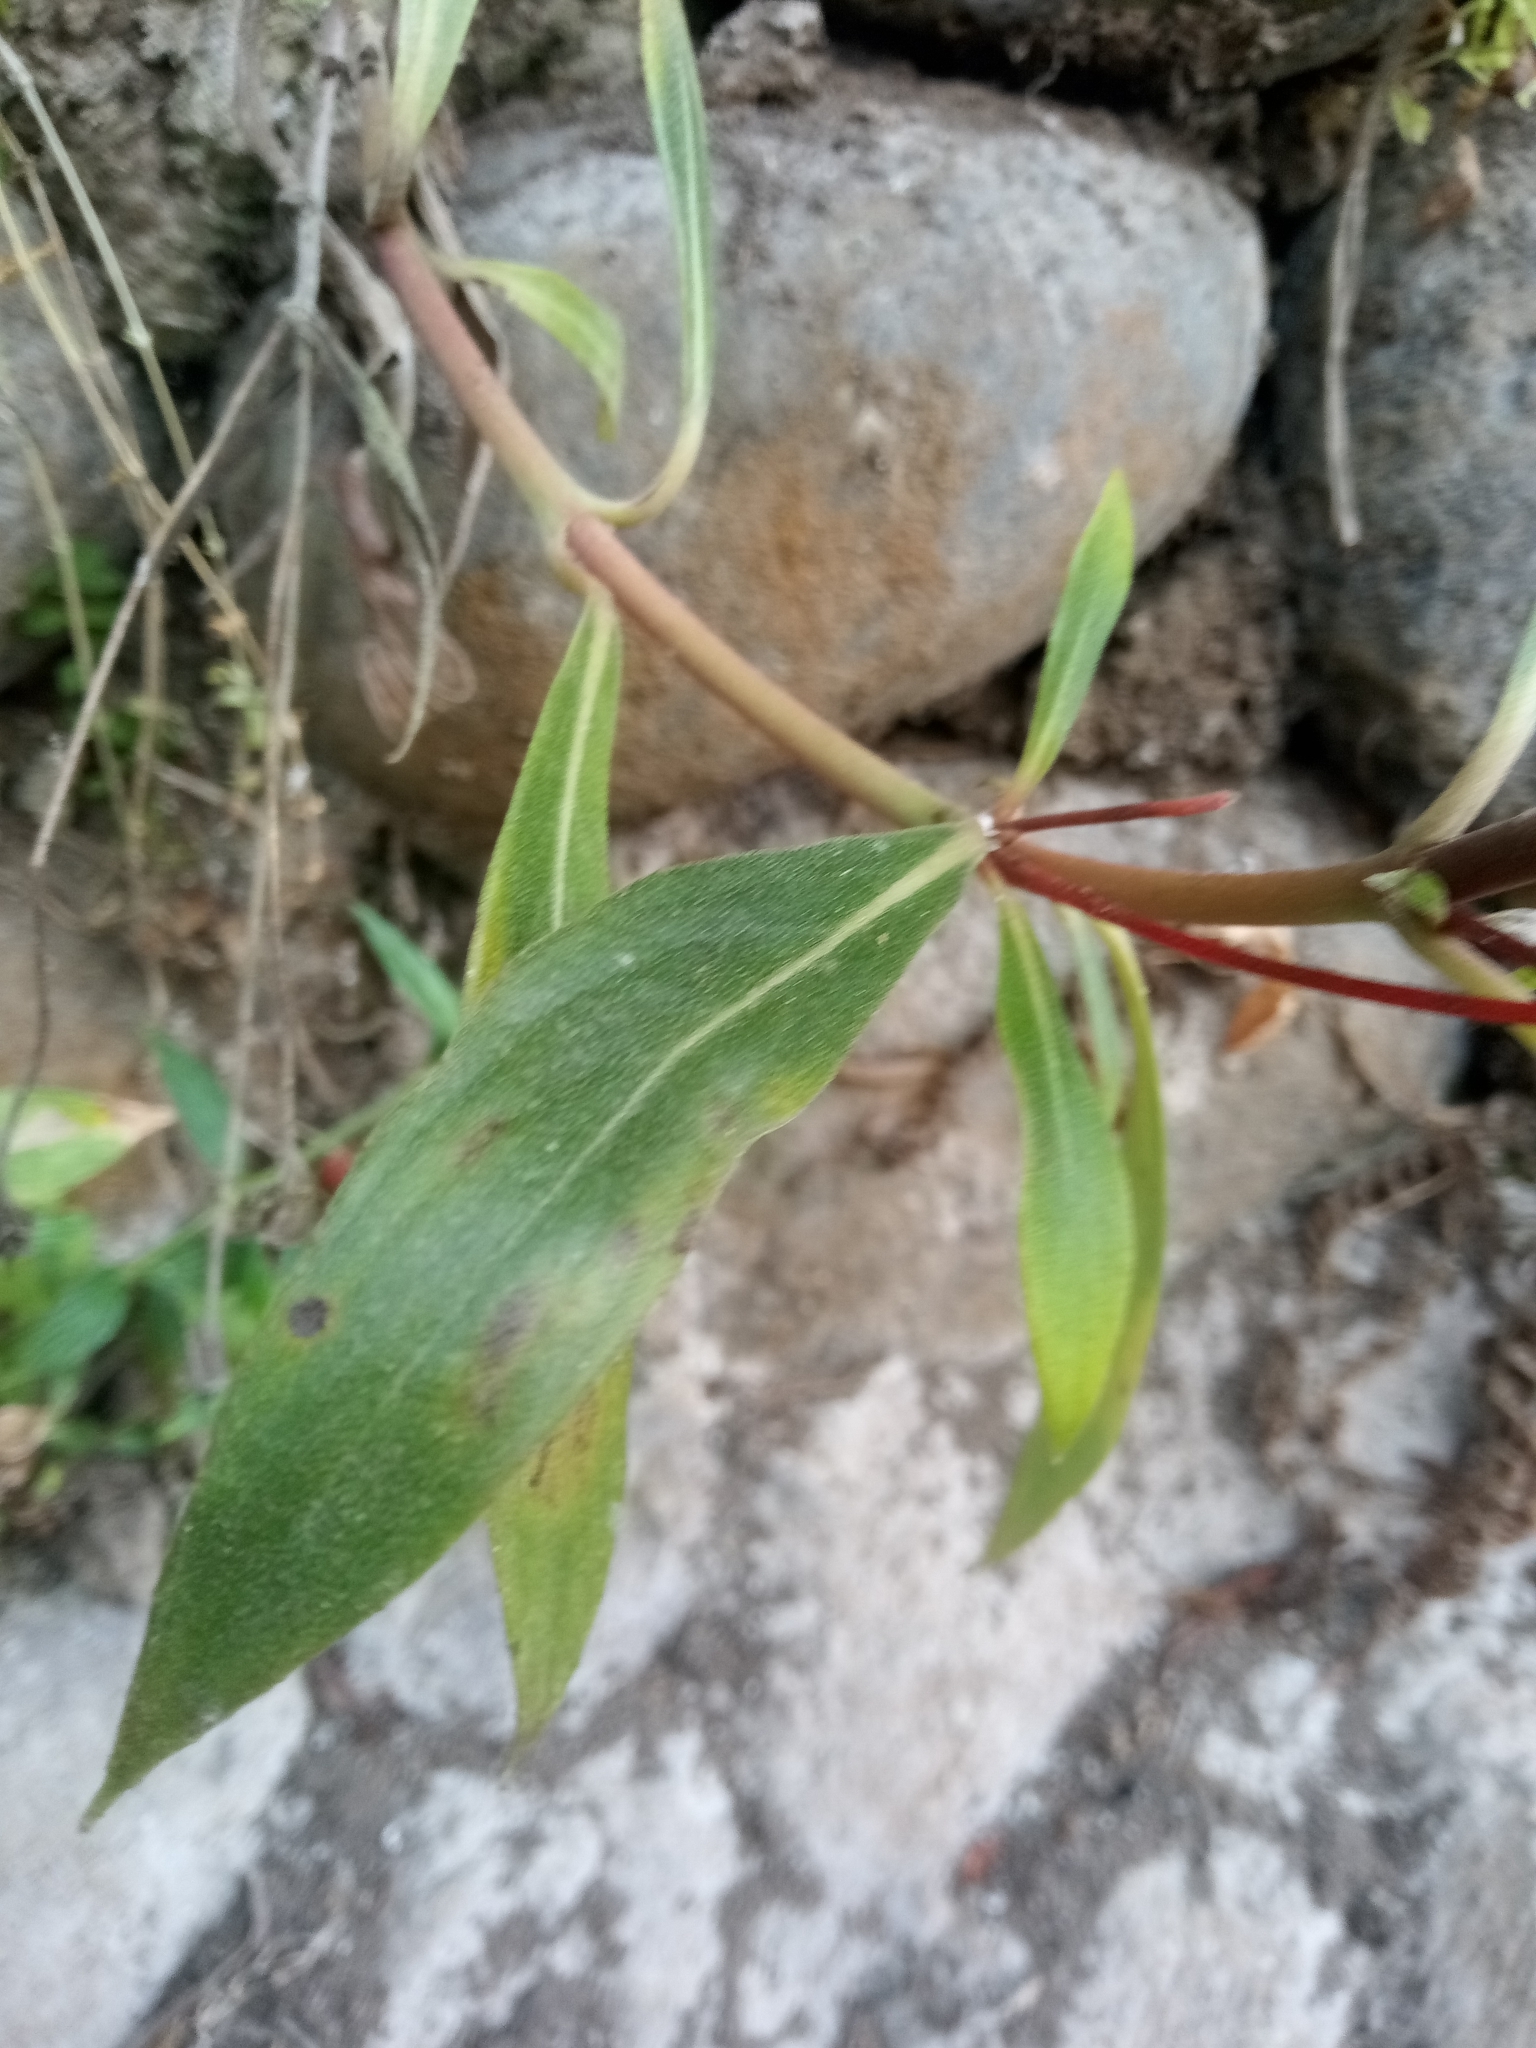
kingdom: Plantae
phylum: Tracheophyta
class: Magnoliopsida
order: Lamiales
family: Gesneriaceae
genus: Seemannia
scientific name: Seemannia sylvatica
